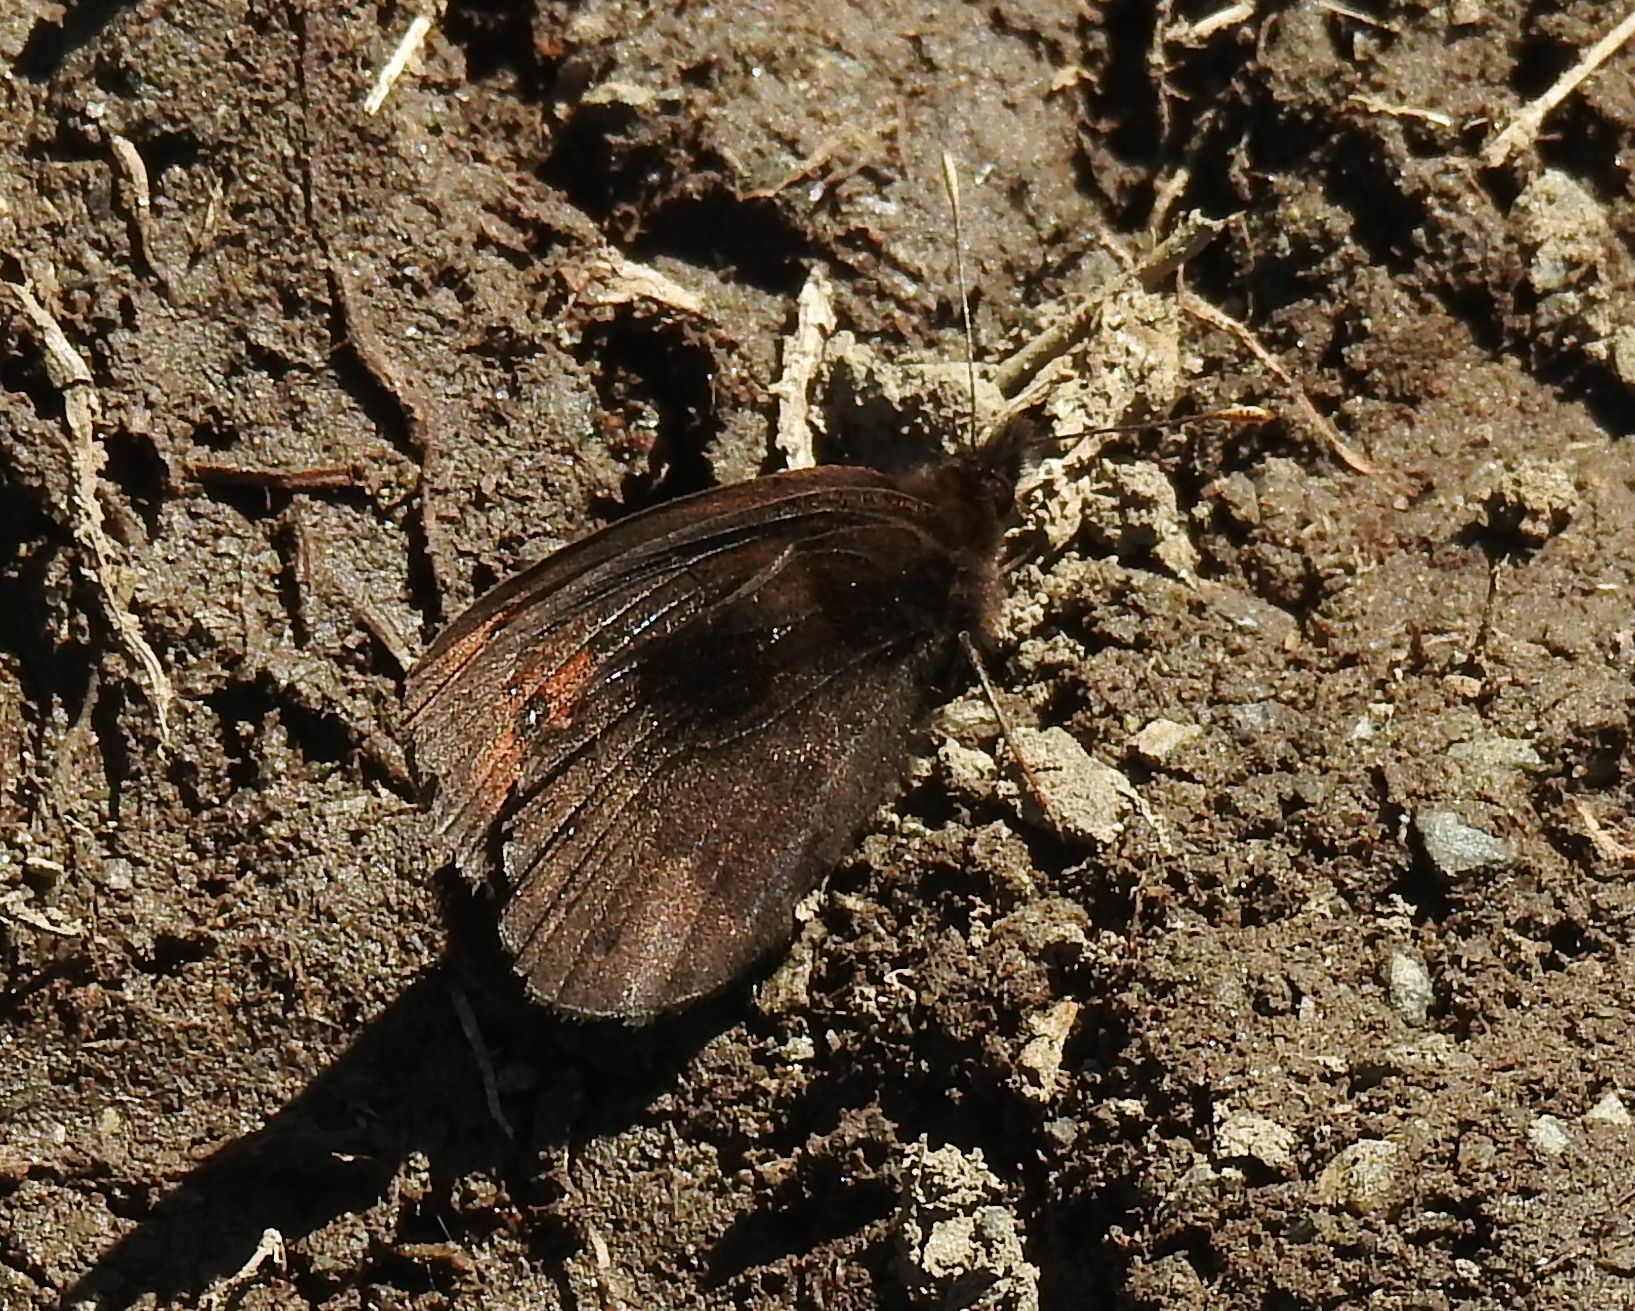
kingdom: Animalia
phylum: Arthropoda
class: Insecta
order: Lepidoptera
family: Nymphalidae
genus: Erebia
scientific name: Erebia meolans
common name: Piedmont ringlet
